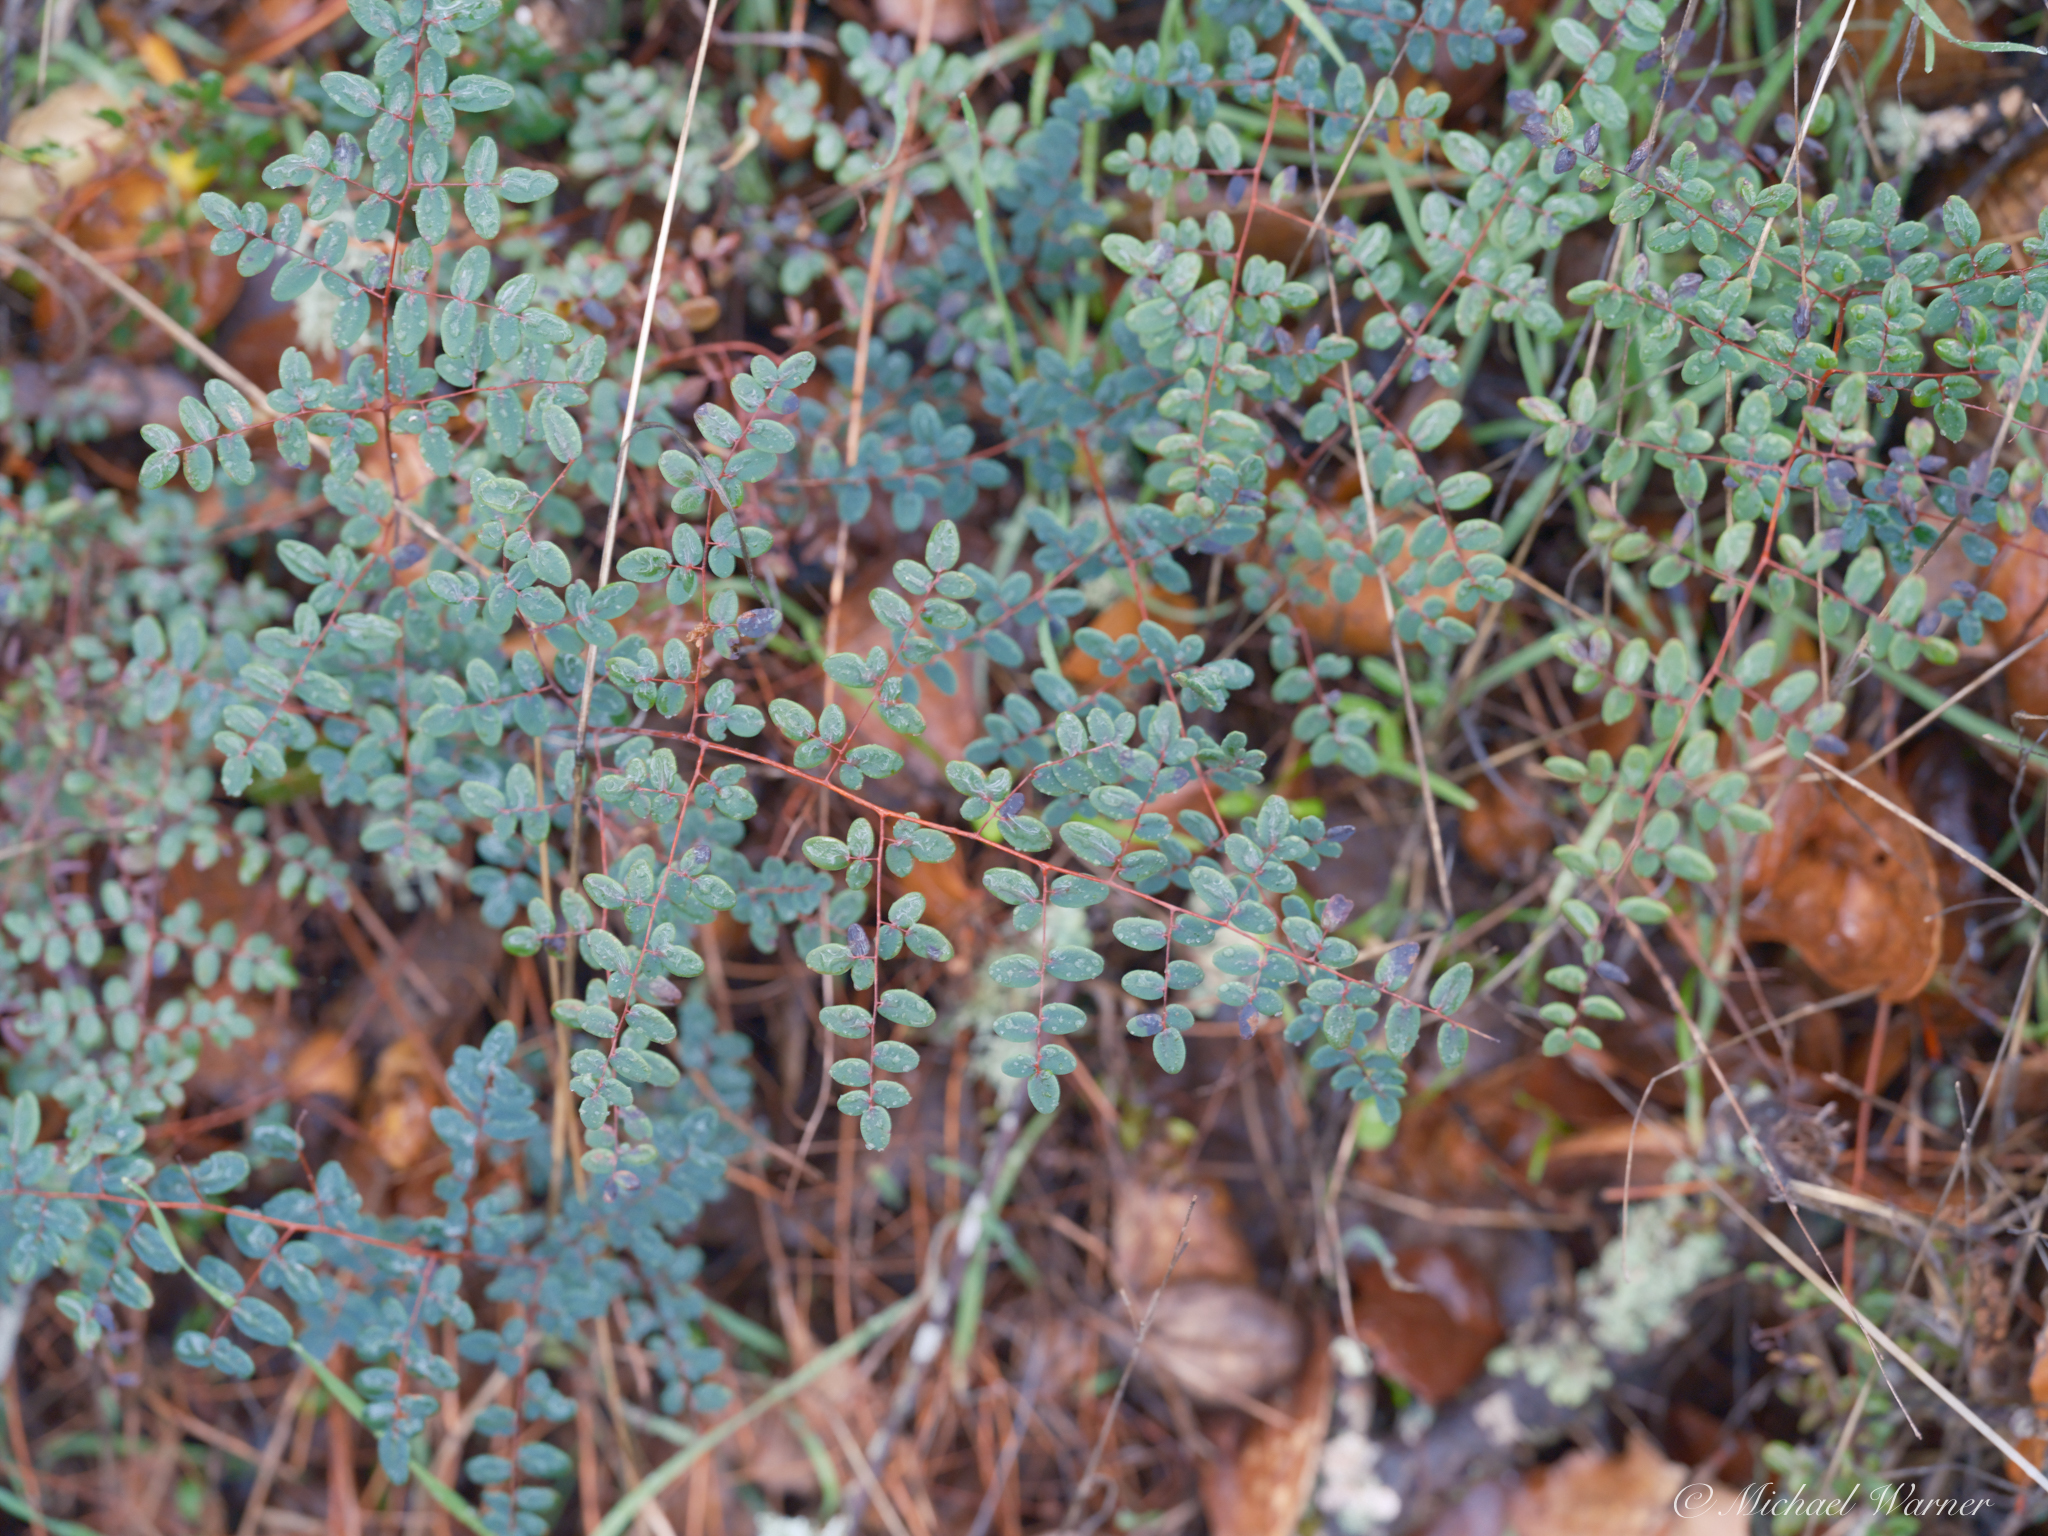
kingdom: Plantae
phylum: Tracheophyta
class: Polypodiopsida
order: Polypodiales
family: Pteridaceae
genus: Pellaea
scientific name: Pellaea andromedifolia
